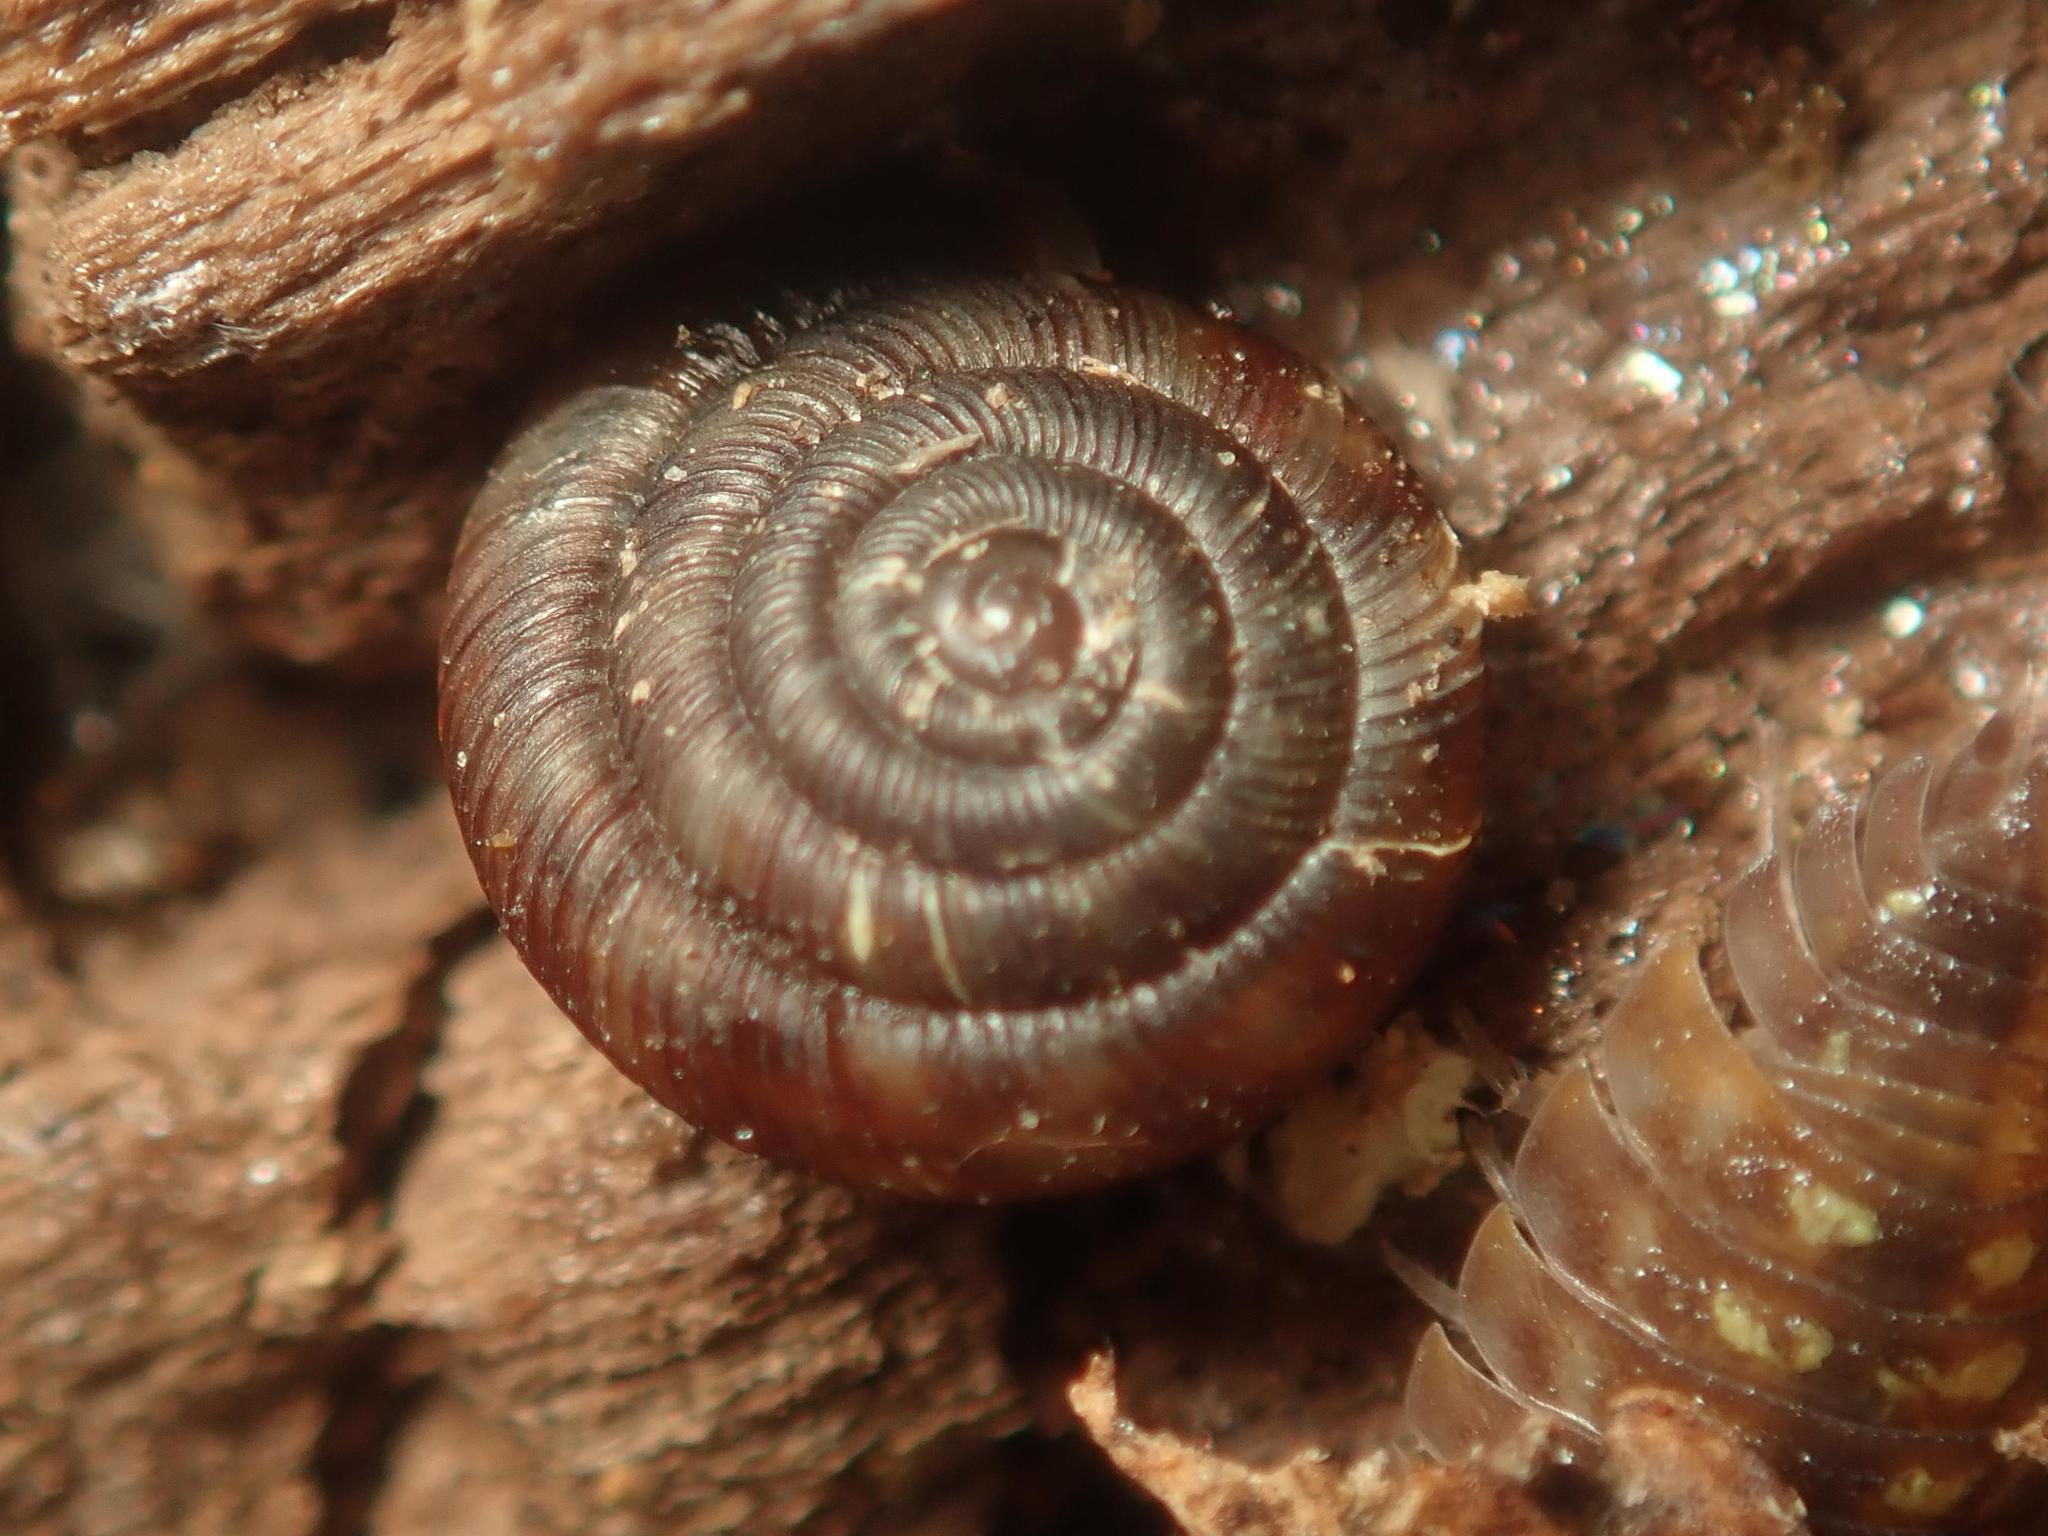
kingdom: Animalia
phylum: Mollusca
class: Gastropoda
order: Stylommatophora
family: Discidae
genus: Discus
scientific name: Discus rotundatus
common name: Rounded snail
